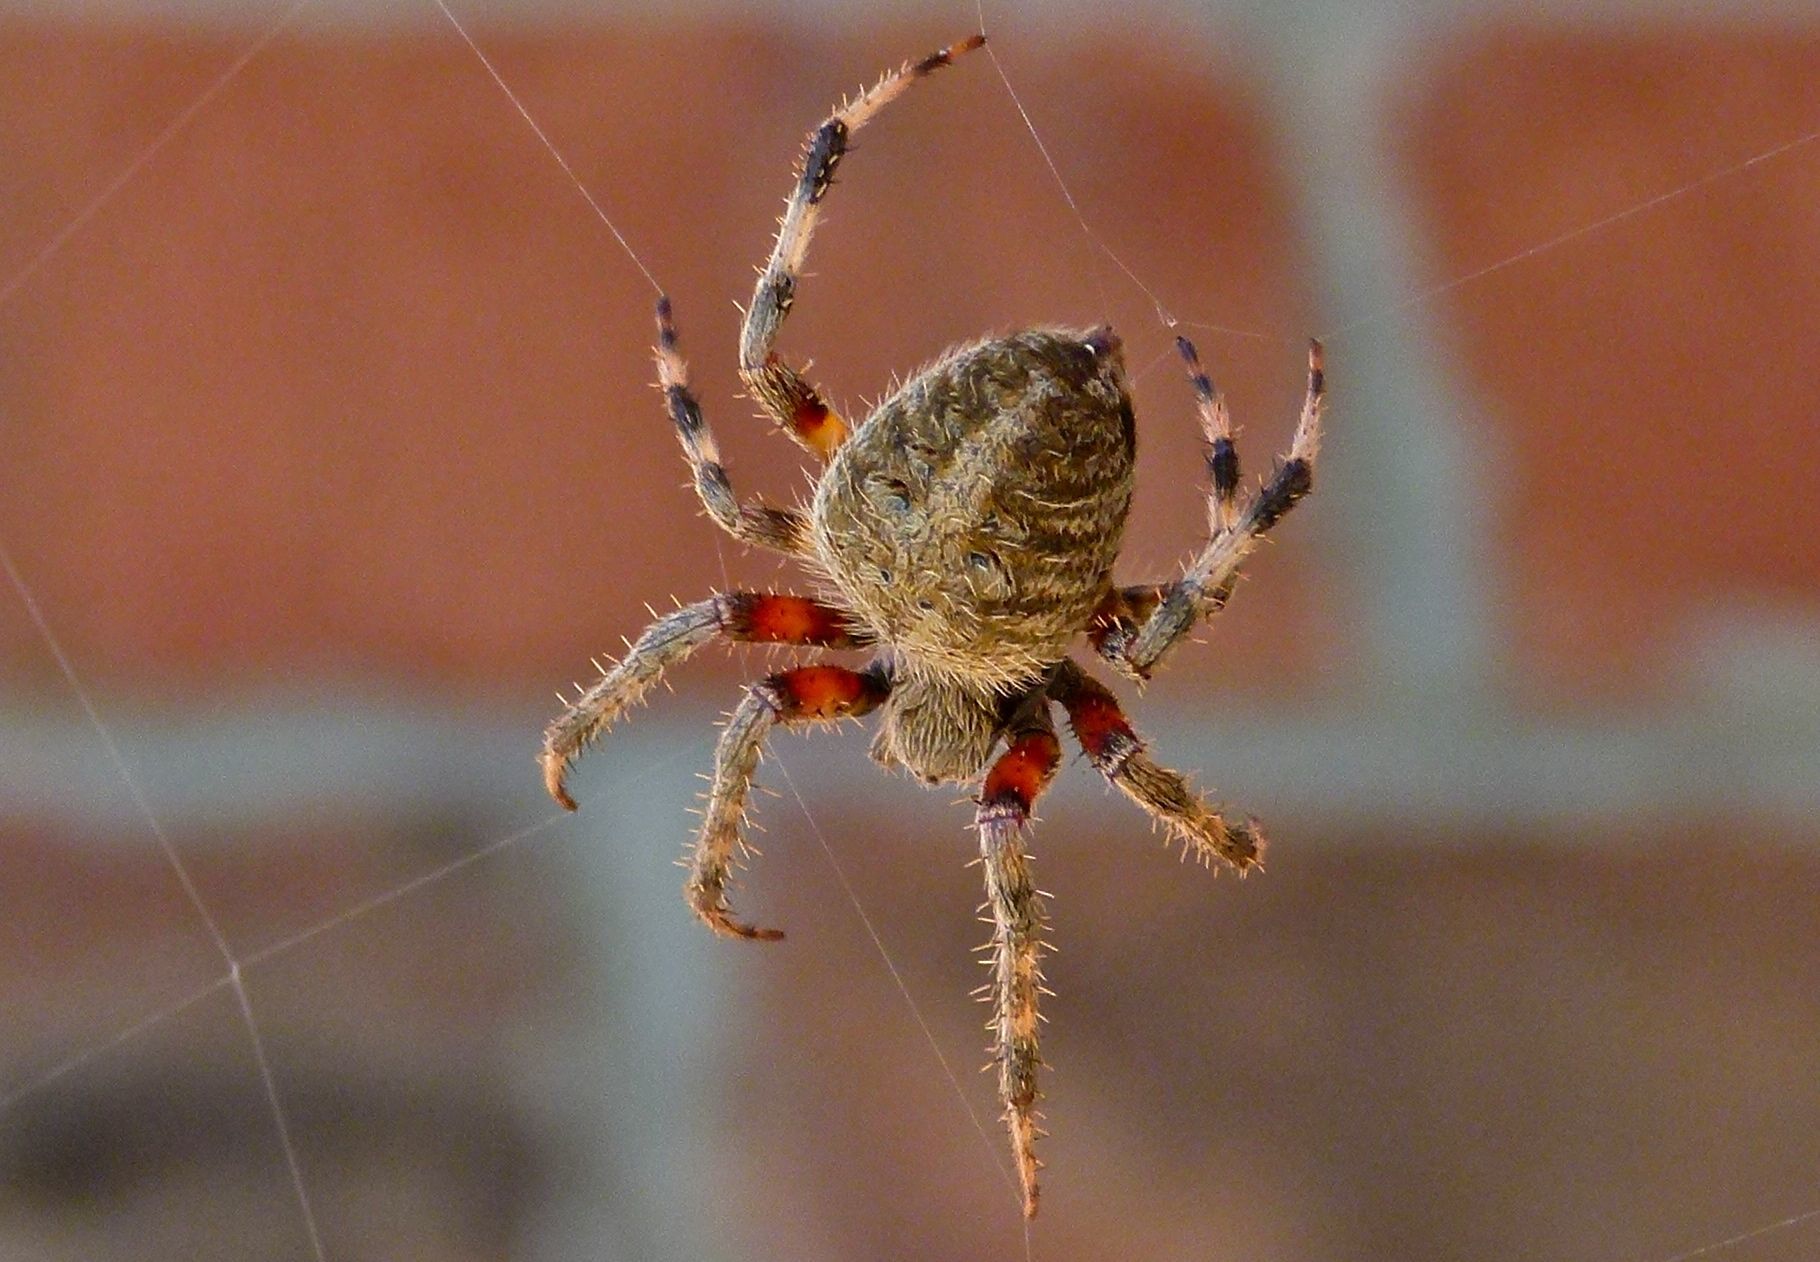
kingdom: Animalia
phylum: Arthropoda
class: Arachnida
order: Araneae
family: Araneidae
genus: Neoscona
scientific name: Neoscona crucifera
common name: Spotted orbweaver
